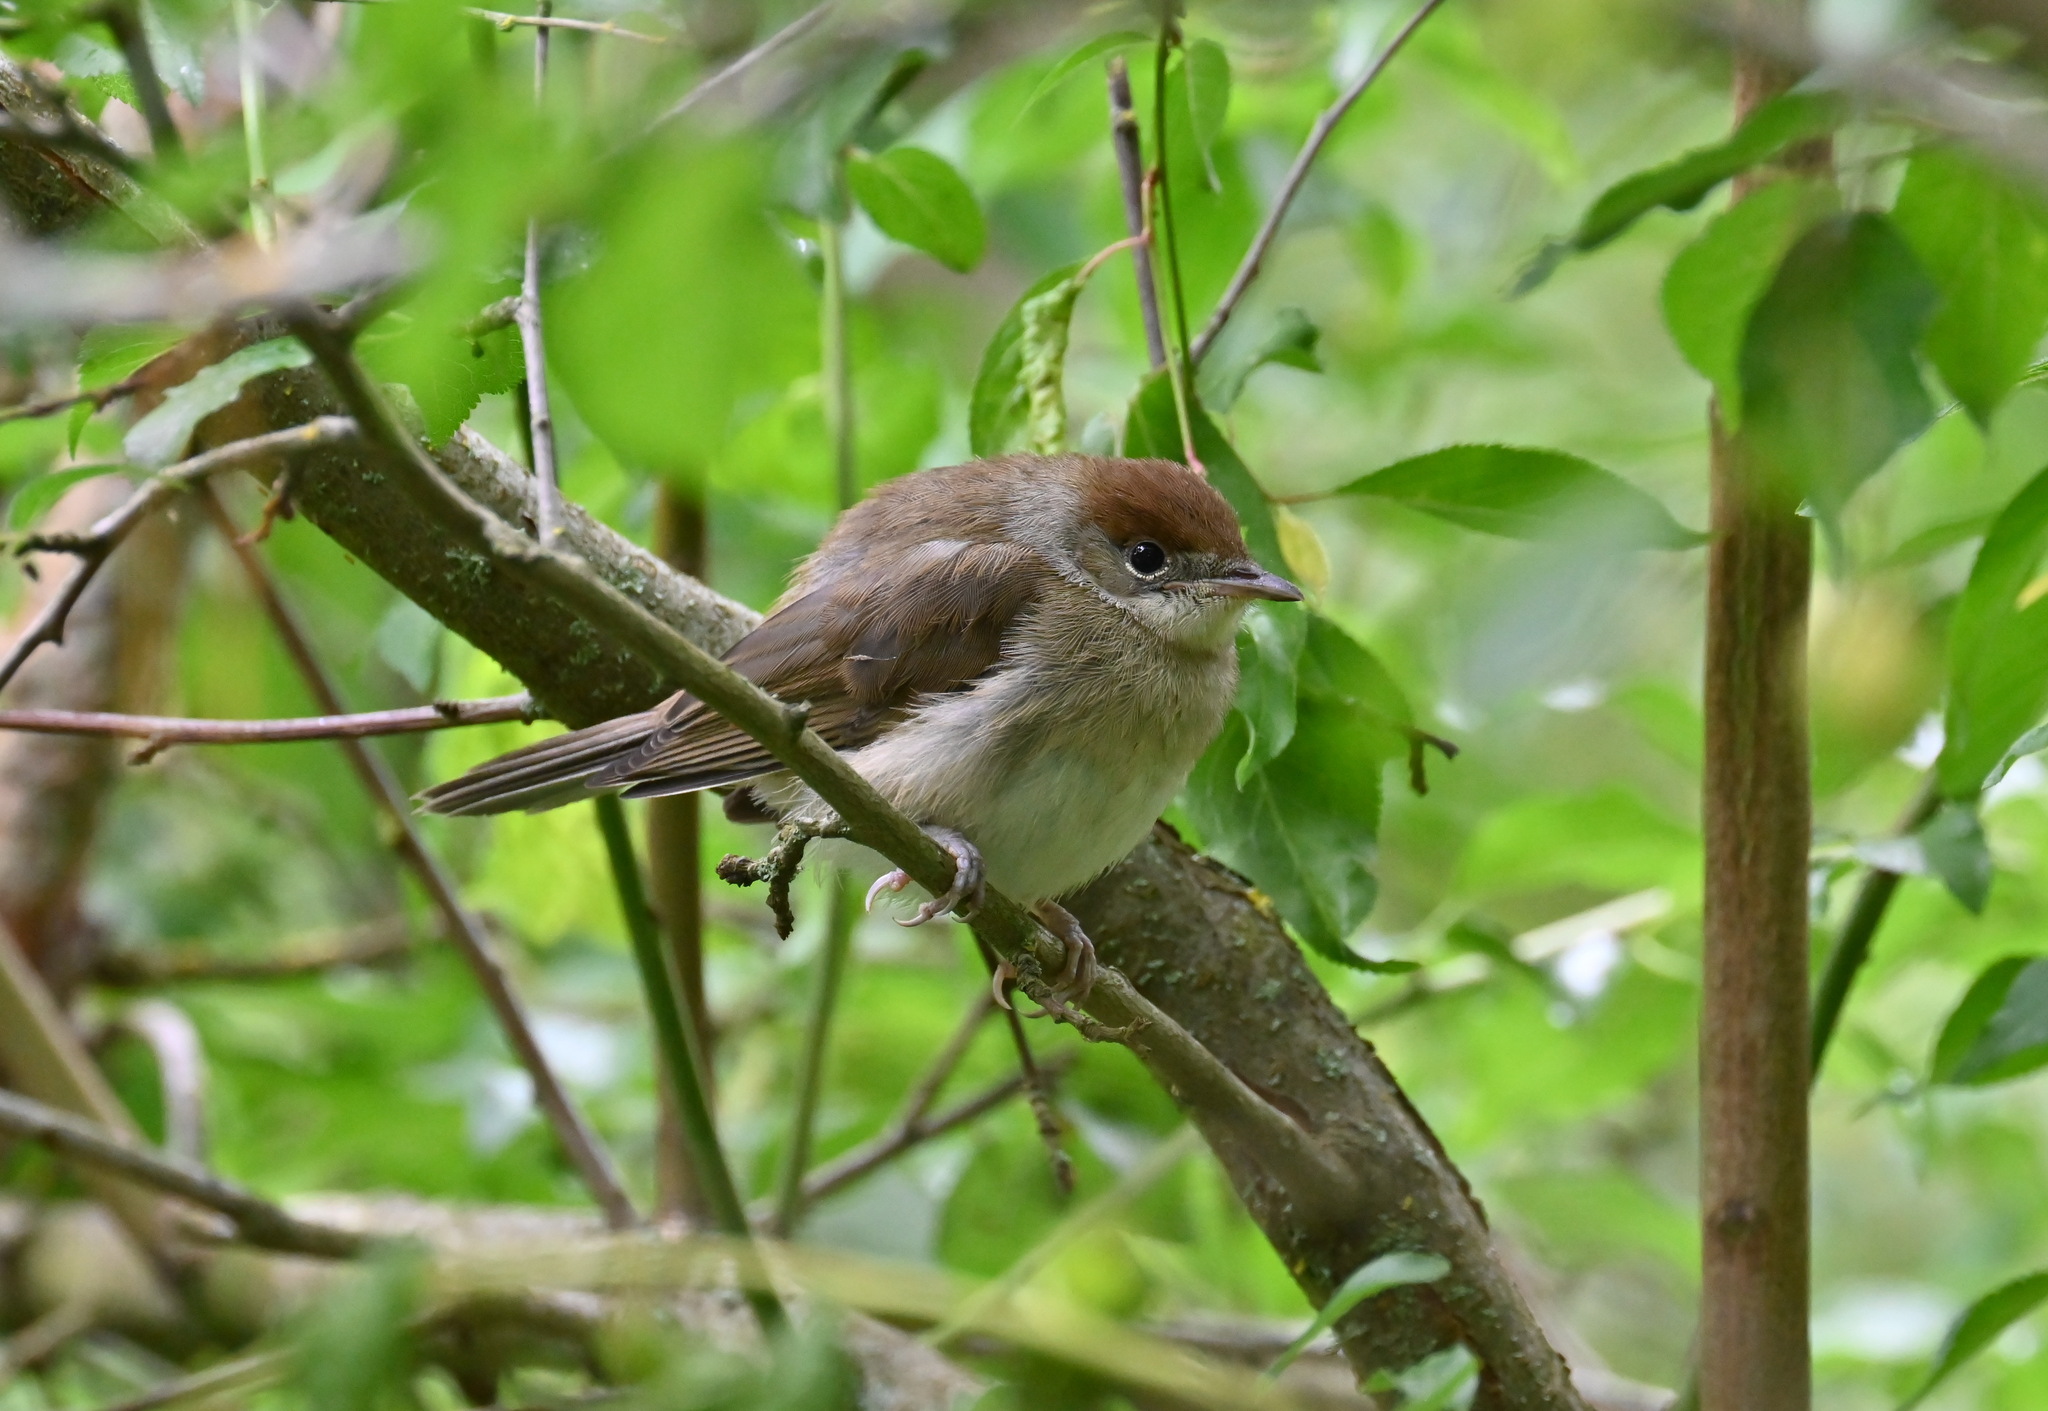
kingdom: Animalia
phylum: Chordata
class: Aves
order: Passeriformes
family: Sylviidae
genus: Sylvia
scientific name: Sylvia atricapilla
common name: Eurasian blackcap
